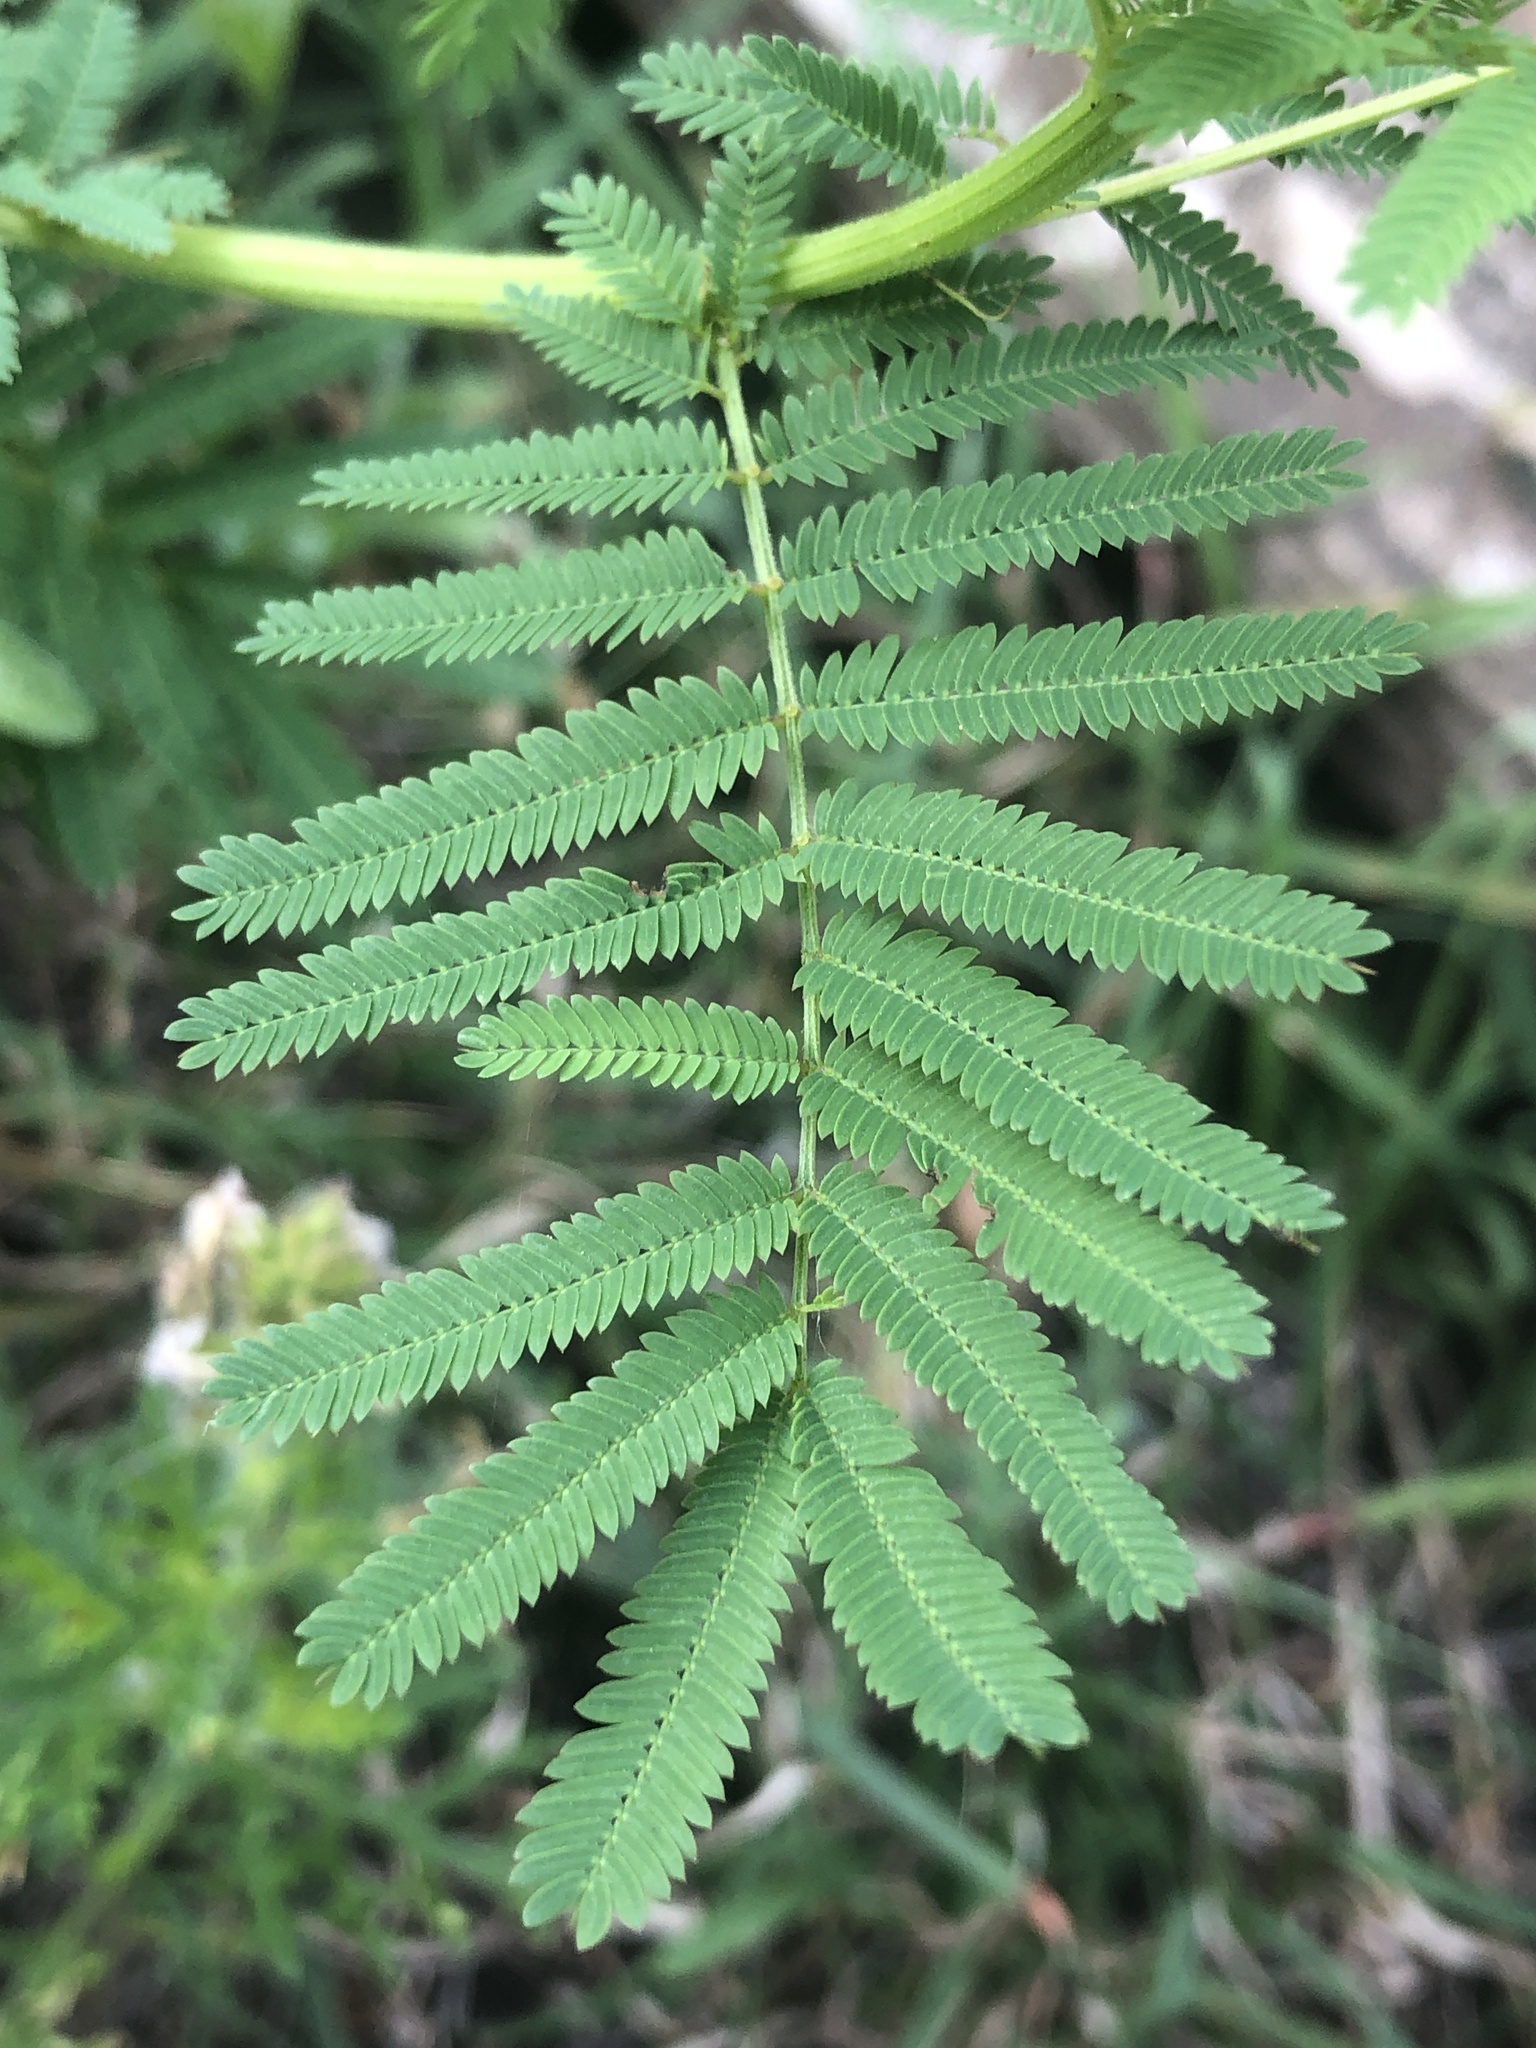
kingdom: Plantae
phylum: Tracheophyta
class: Magnoliopsida
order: Fabales
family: Fabaceae
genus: Desmanthus
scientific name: Desmanthus illinoensis
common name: Illinois bundle-flower
